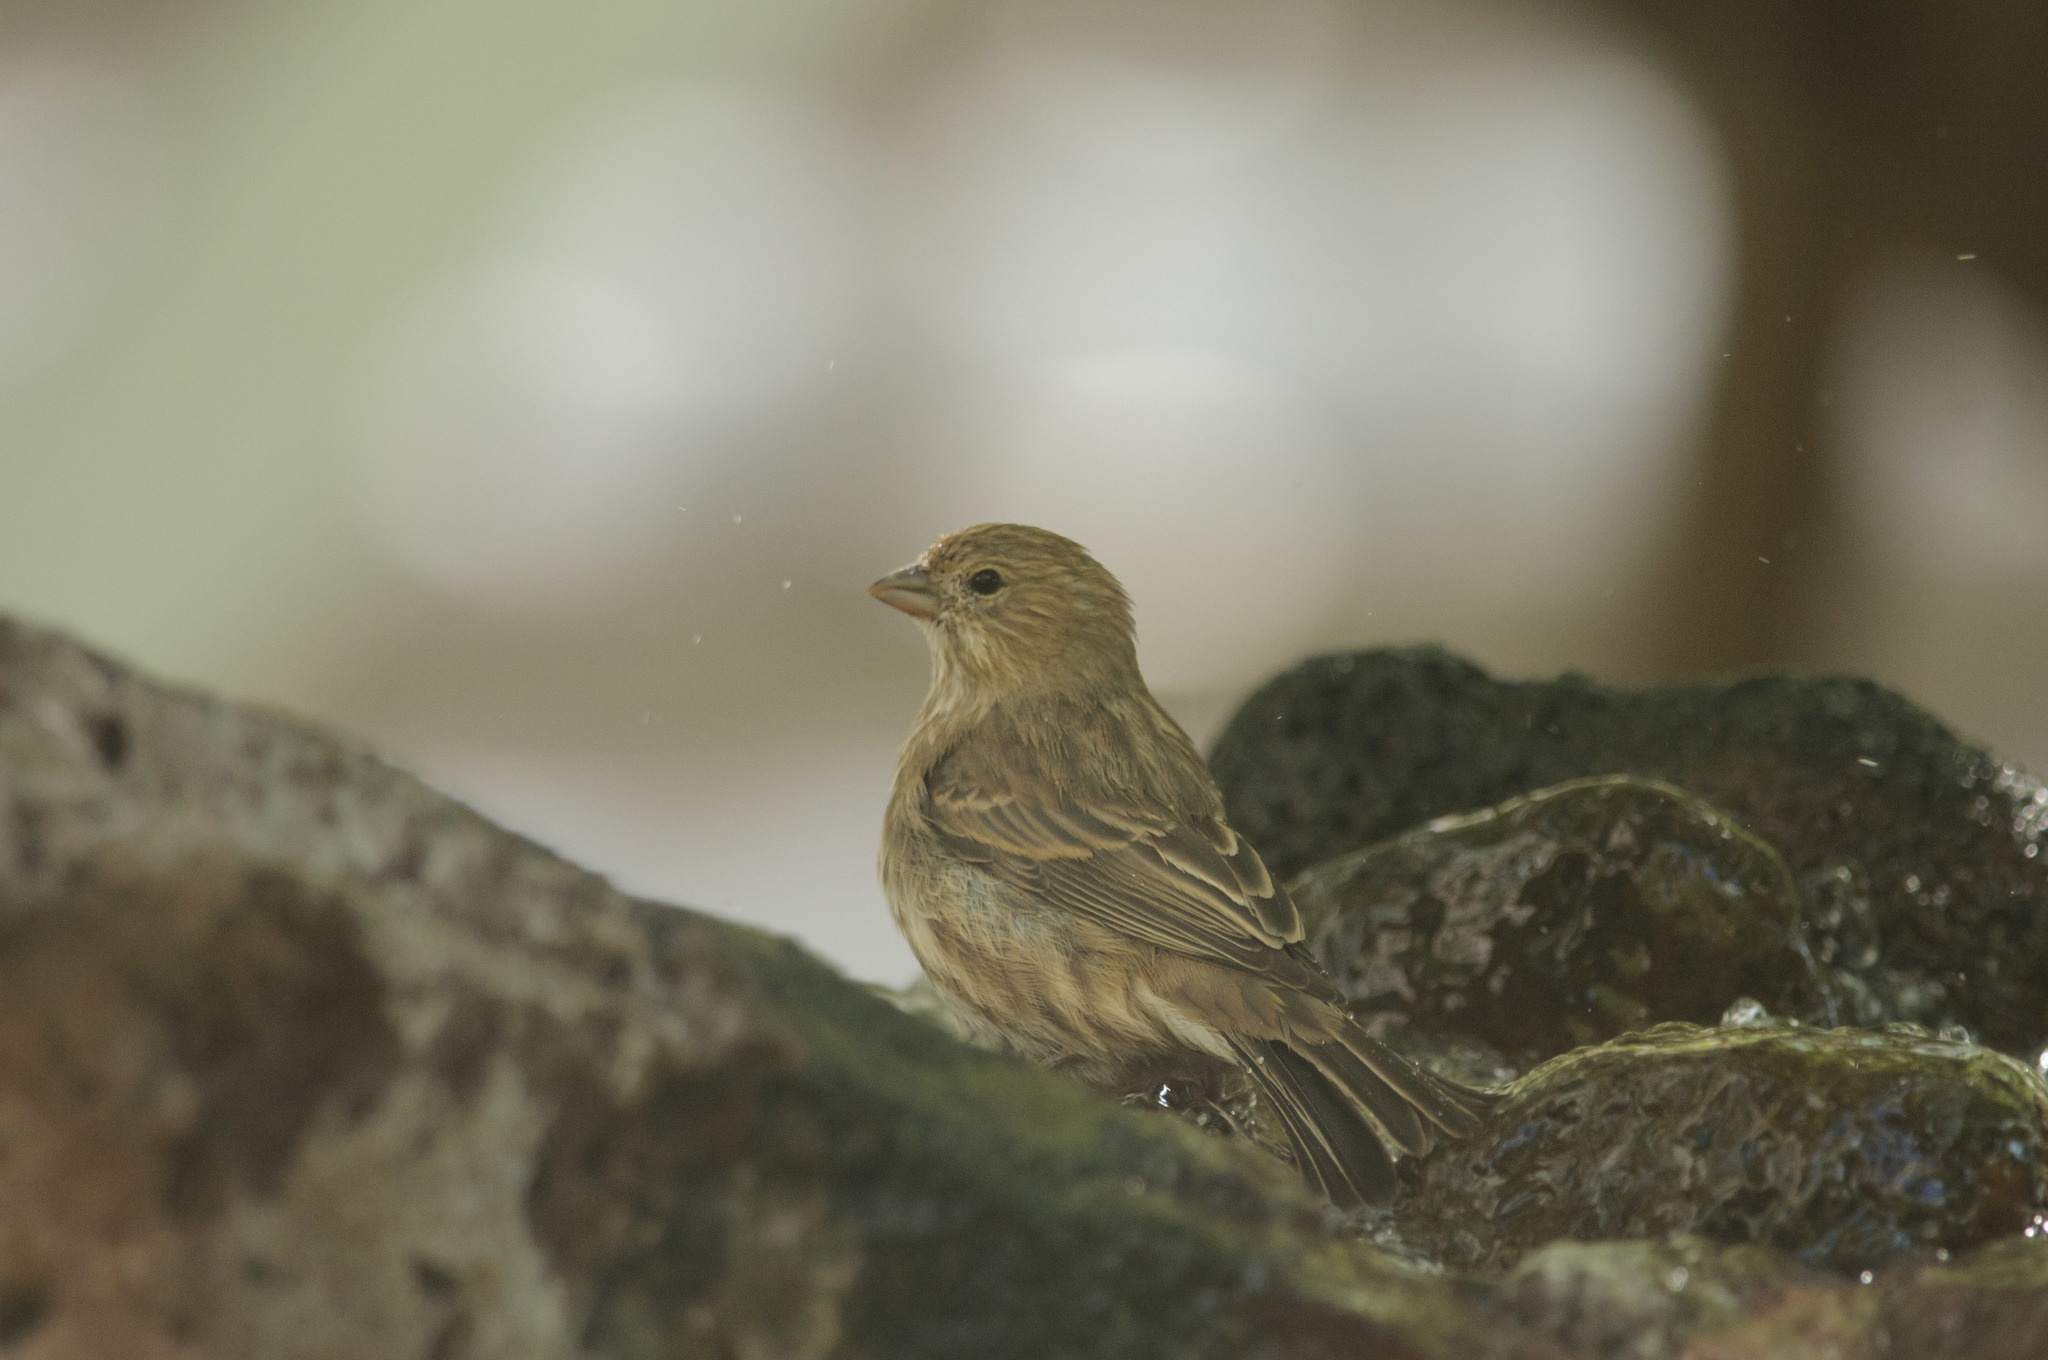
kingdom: Animalia
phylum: Chordata
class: Aves
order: Passeriformes
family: Fringillidae
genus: Haemorhous
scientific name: Haemorhous mexicanus
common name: House finch
